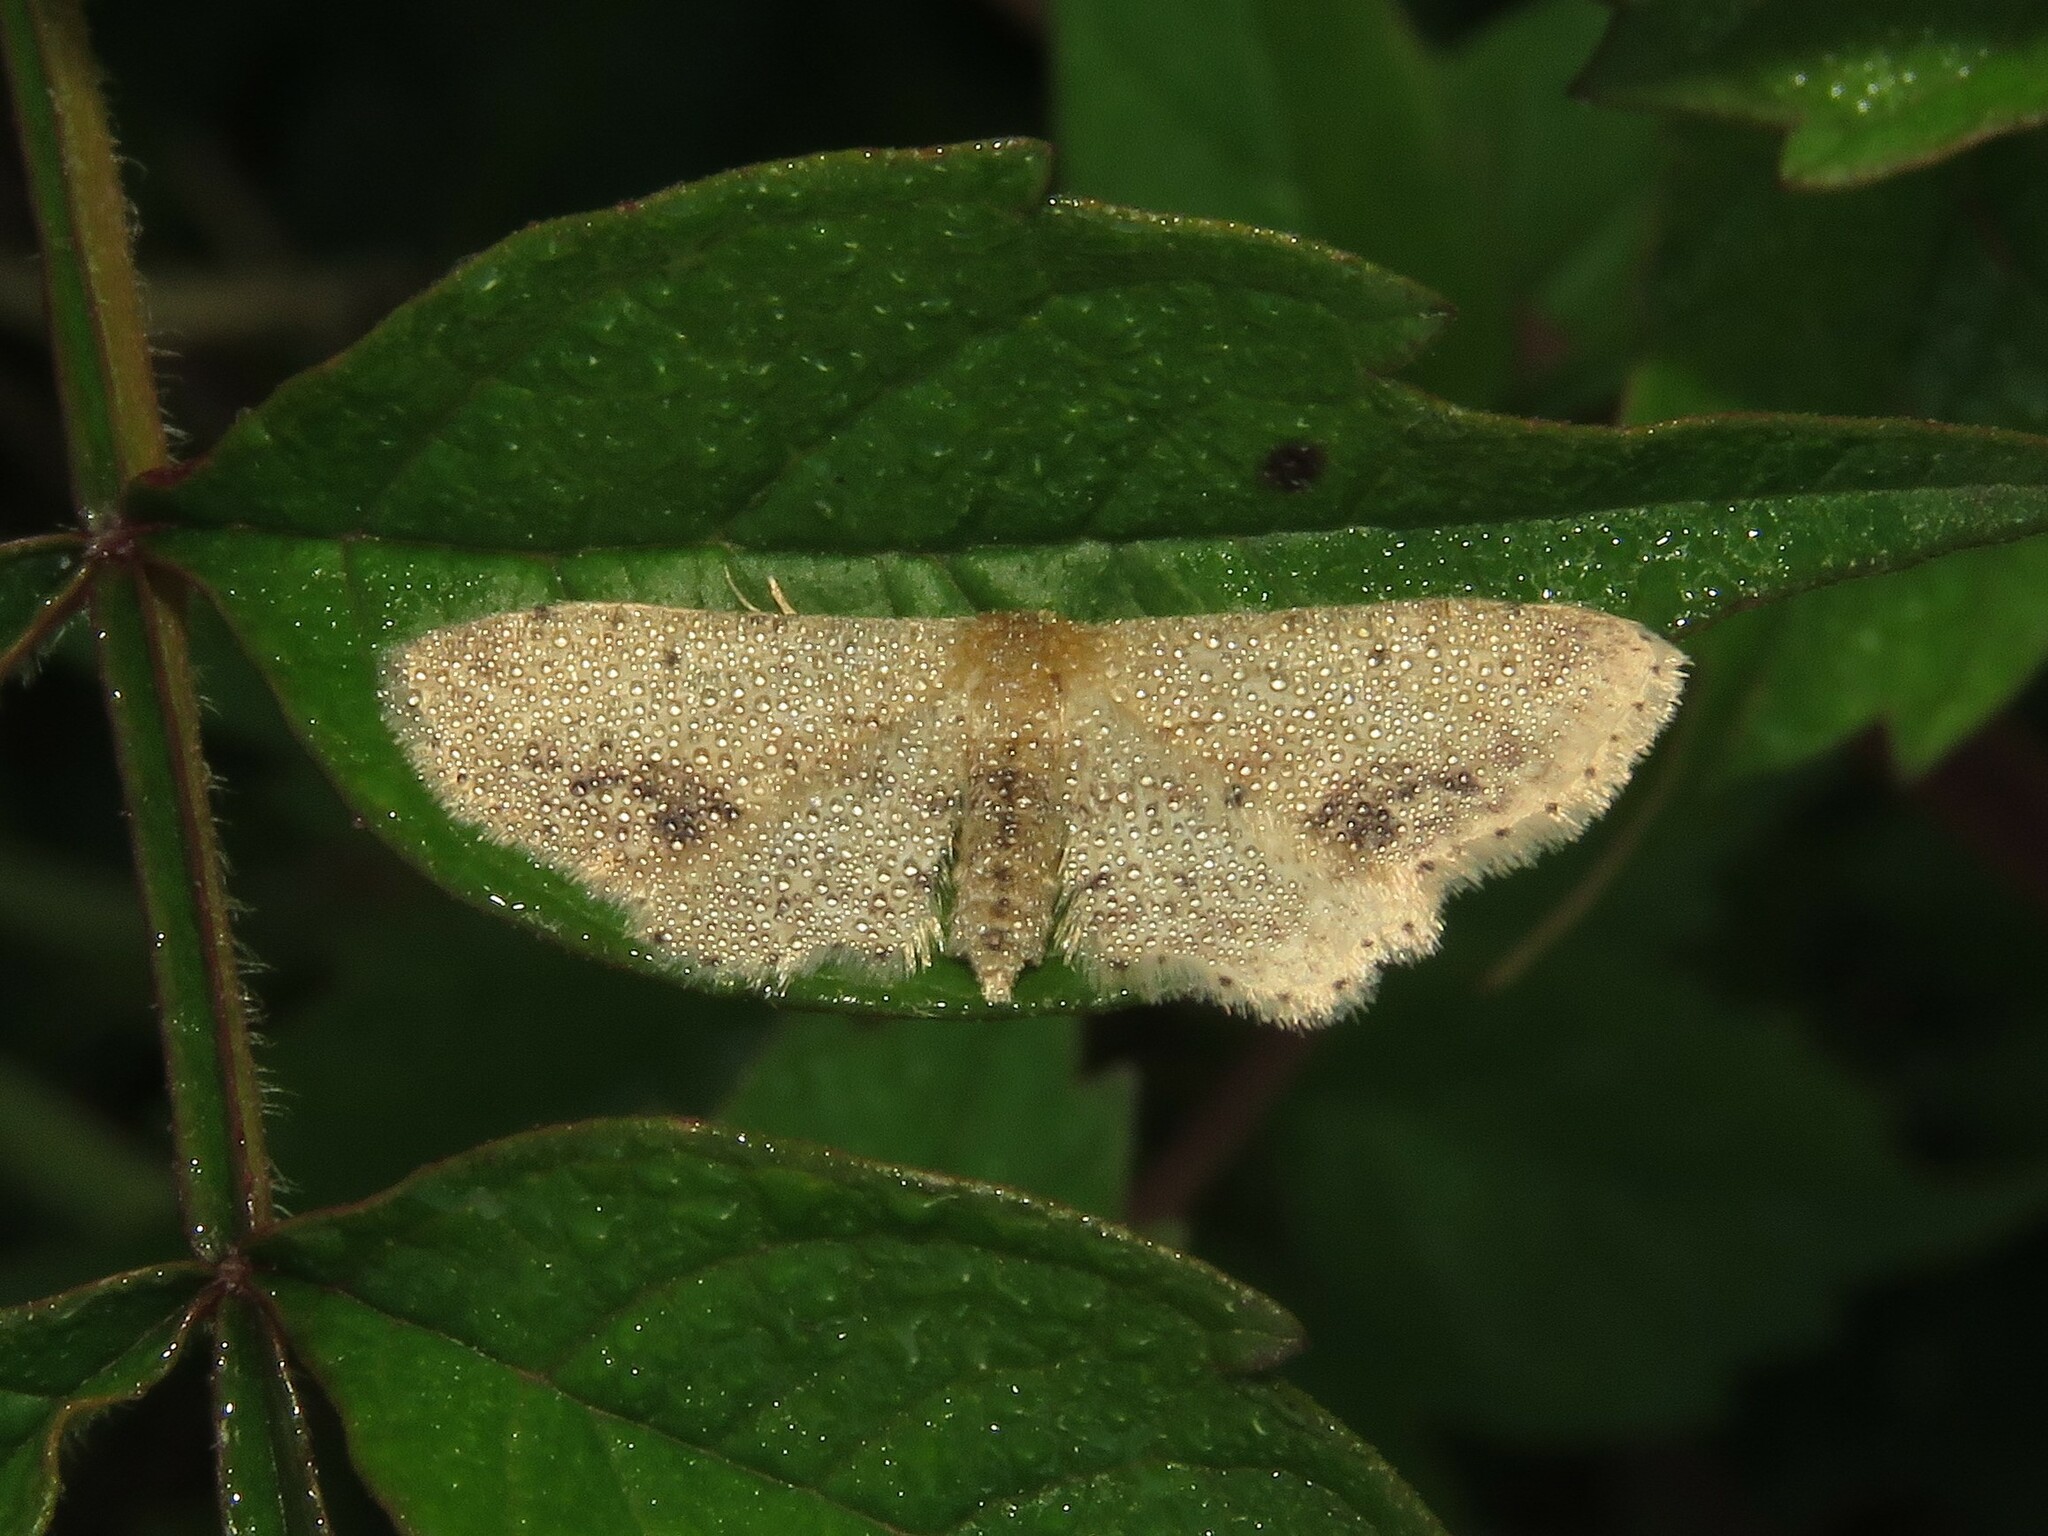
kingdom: Animalia
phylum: Arthropoda
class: Insecta
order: Lepidoptera
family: Geometridae
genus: Idaea
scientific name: Idaea dimidiata
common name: Single-dotted wave
